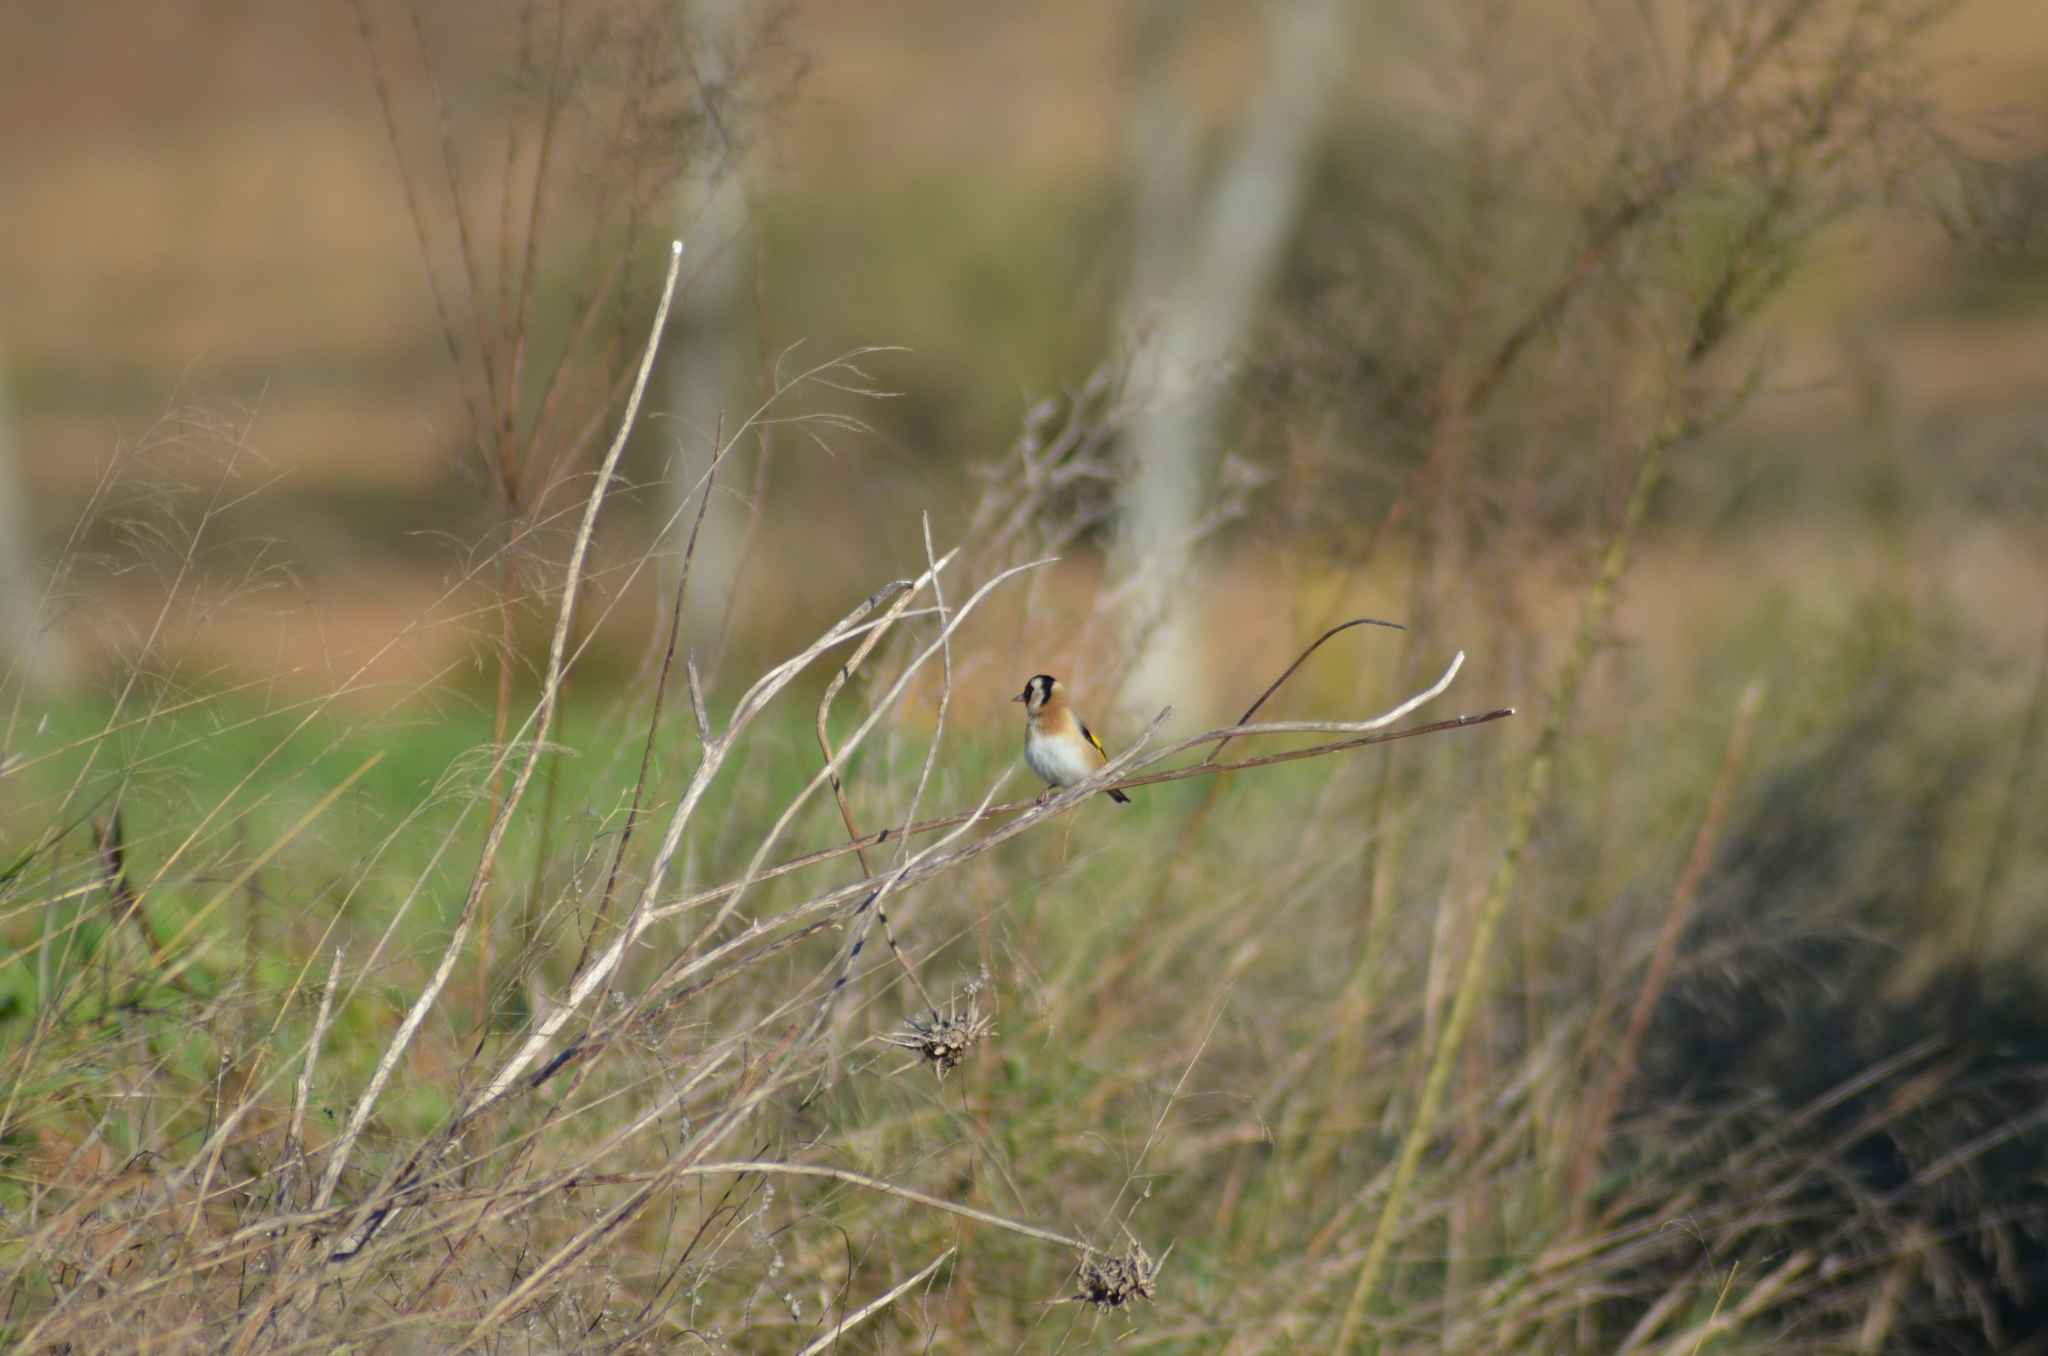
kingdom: Animalia
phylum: Chordata
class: Aves
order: Passeriformes
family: Fringillidae
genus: Carduelis
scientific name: Carduelis carduelis
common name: European goldfinch
